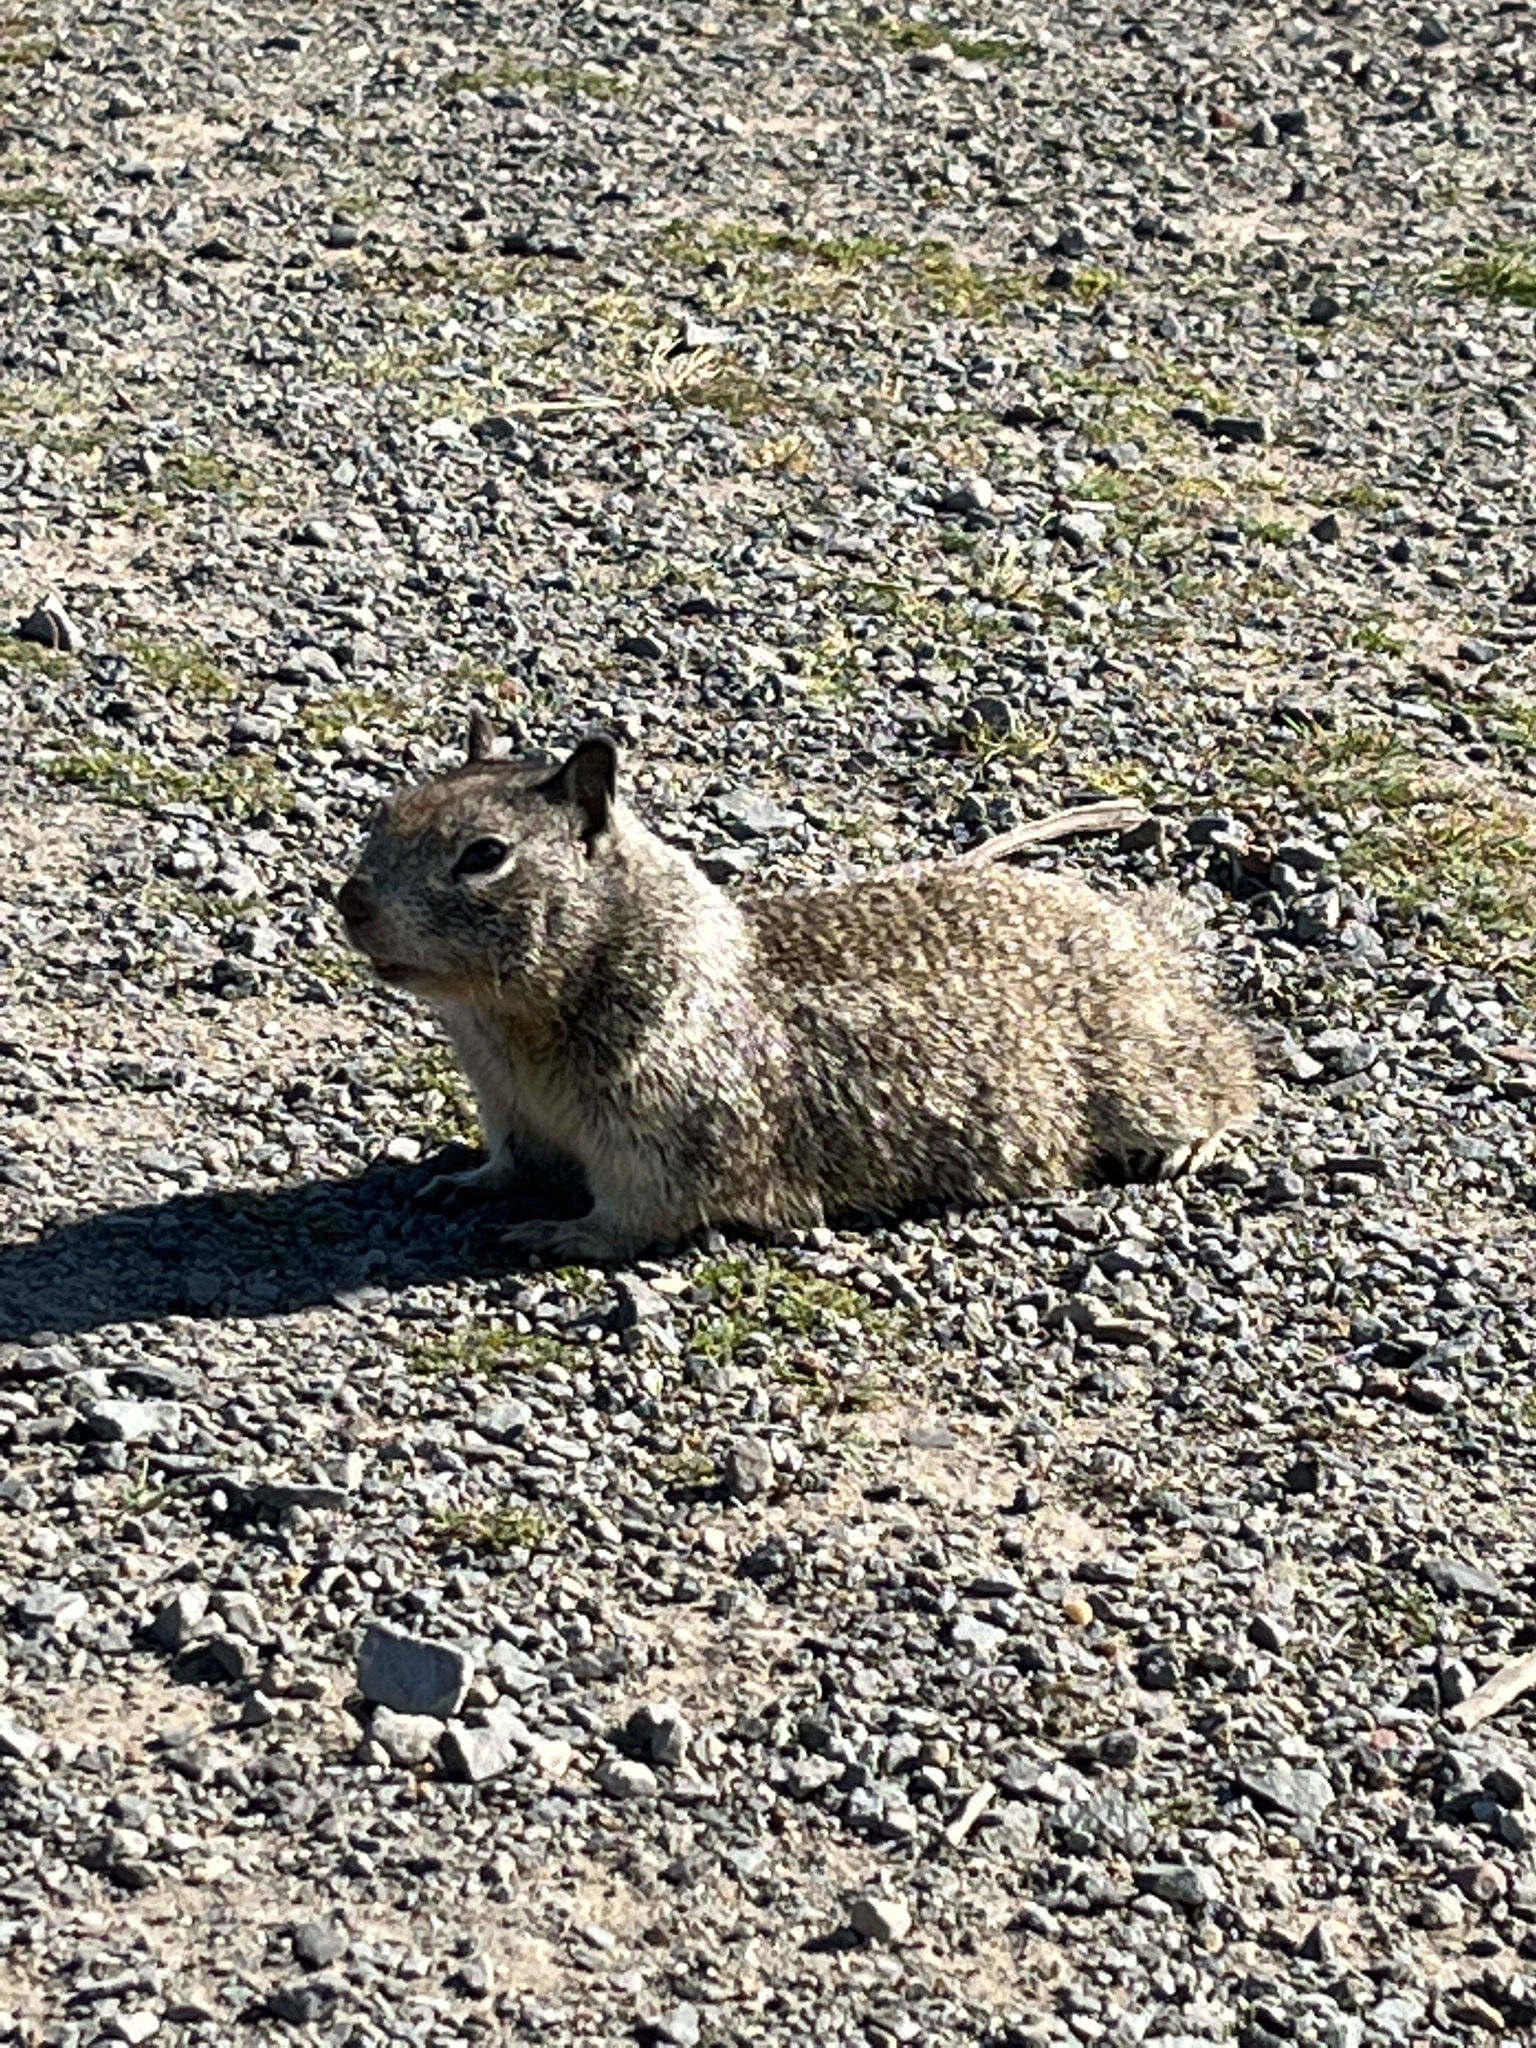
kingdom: Animalia
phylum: Chordata
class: Mammalia
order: Rodentia
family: Sciuridae
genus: Otospermophilus
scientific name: Otospermophilus beecheyi
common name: California ground squirrel
